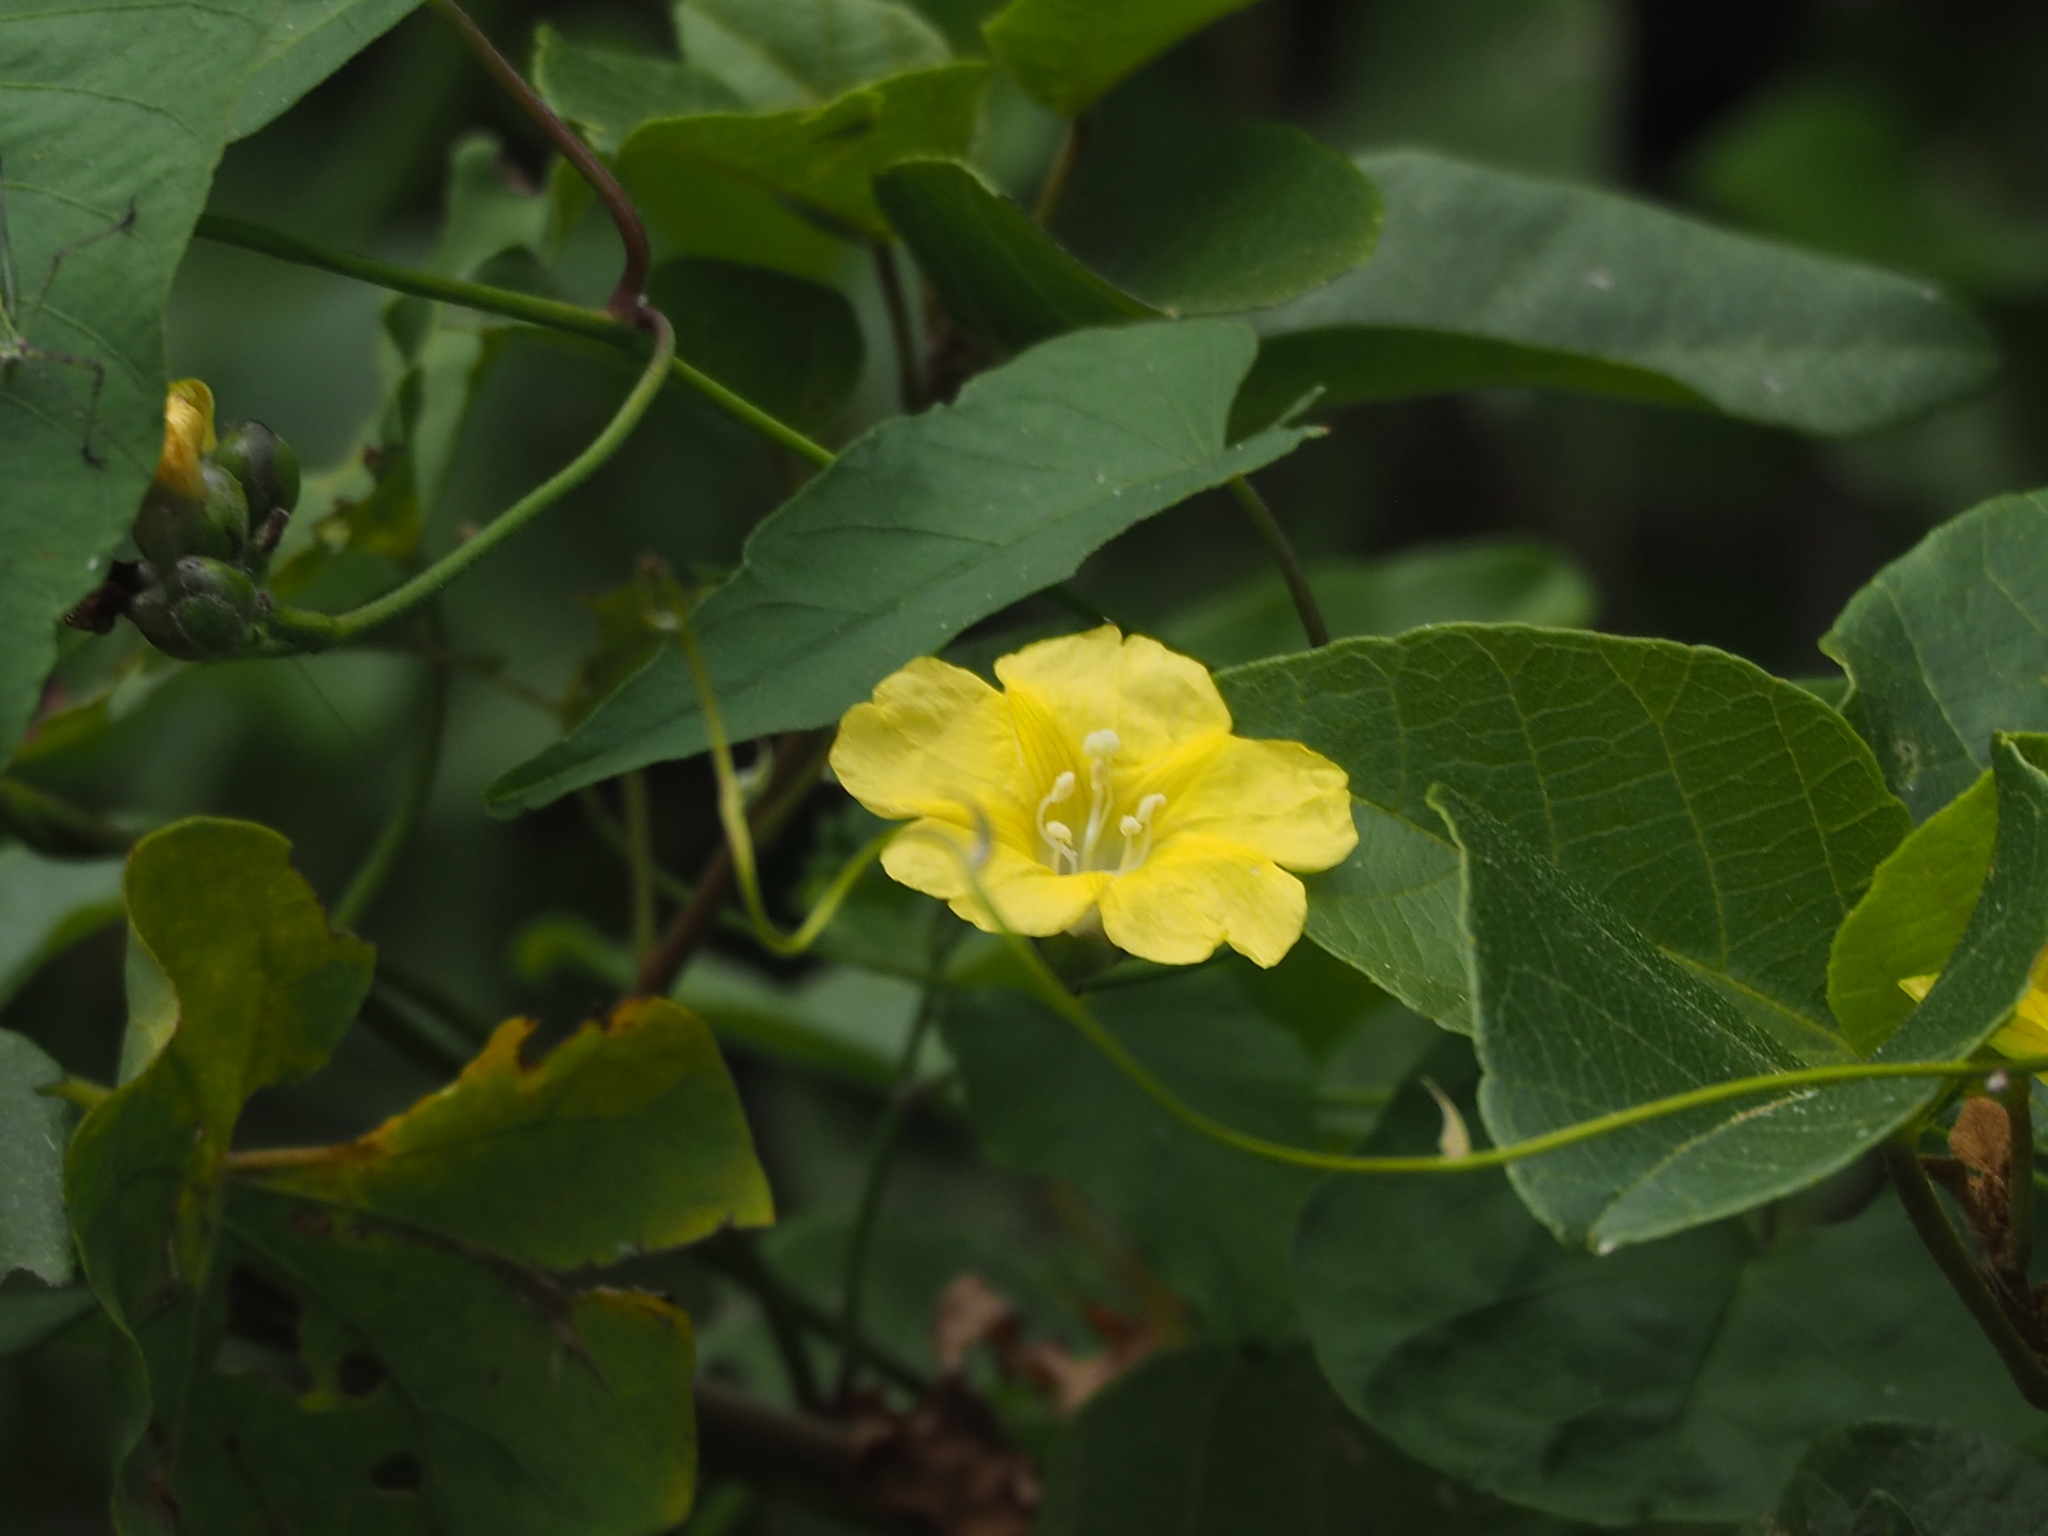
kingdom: Plantae
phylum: Tracheophyta
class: Magnoliopsida
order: Solanales
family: Convolvulaceae
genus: Merremia
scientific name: Merremia gemella
